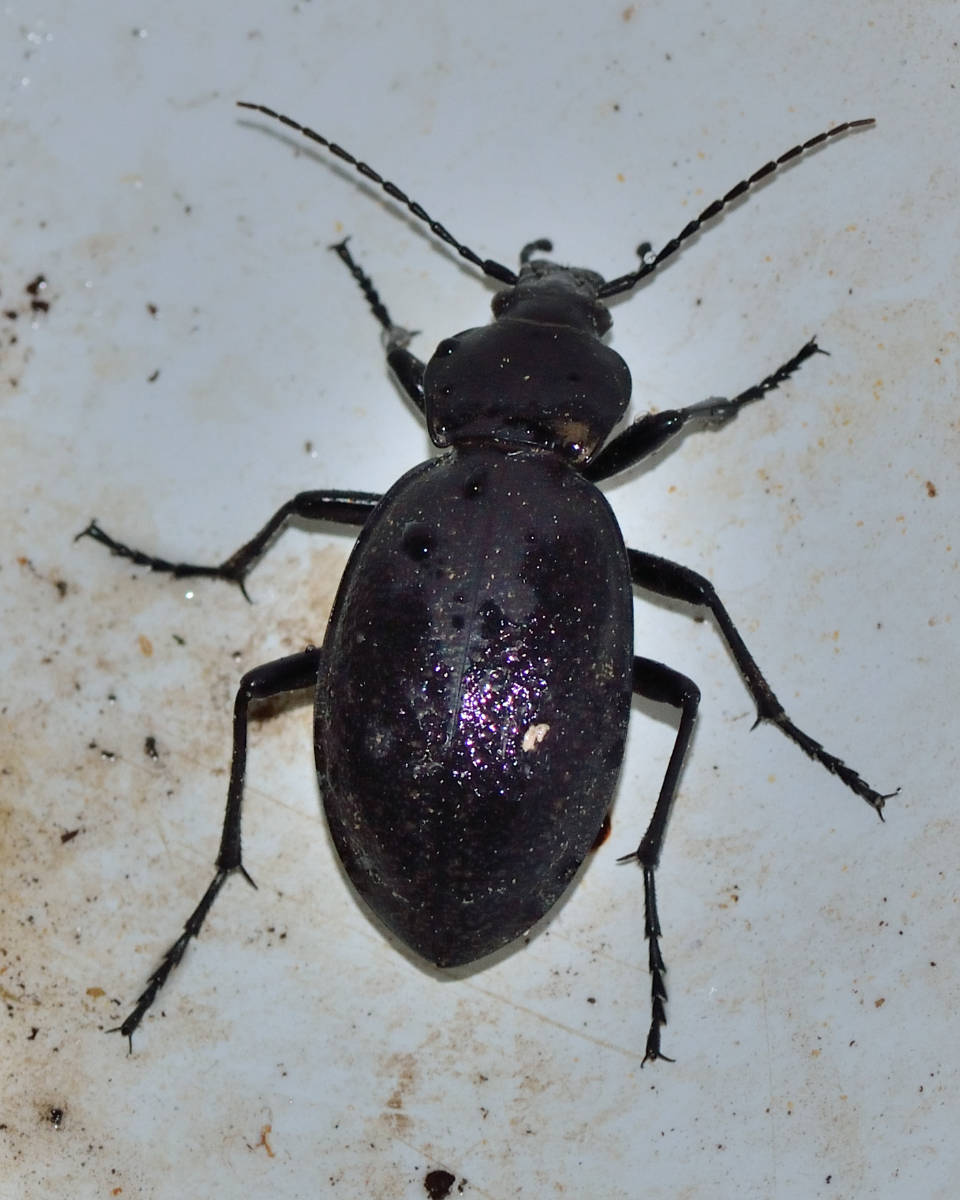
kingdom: Animalia
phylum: Arthropoda
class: Insecta
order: Coleoptera
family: Carabidae
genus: Carabus
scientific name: Carabus coriaceus
